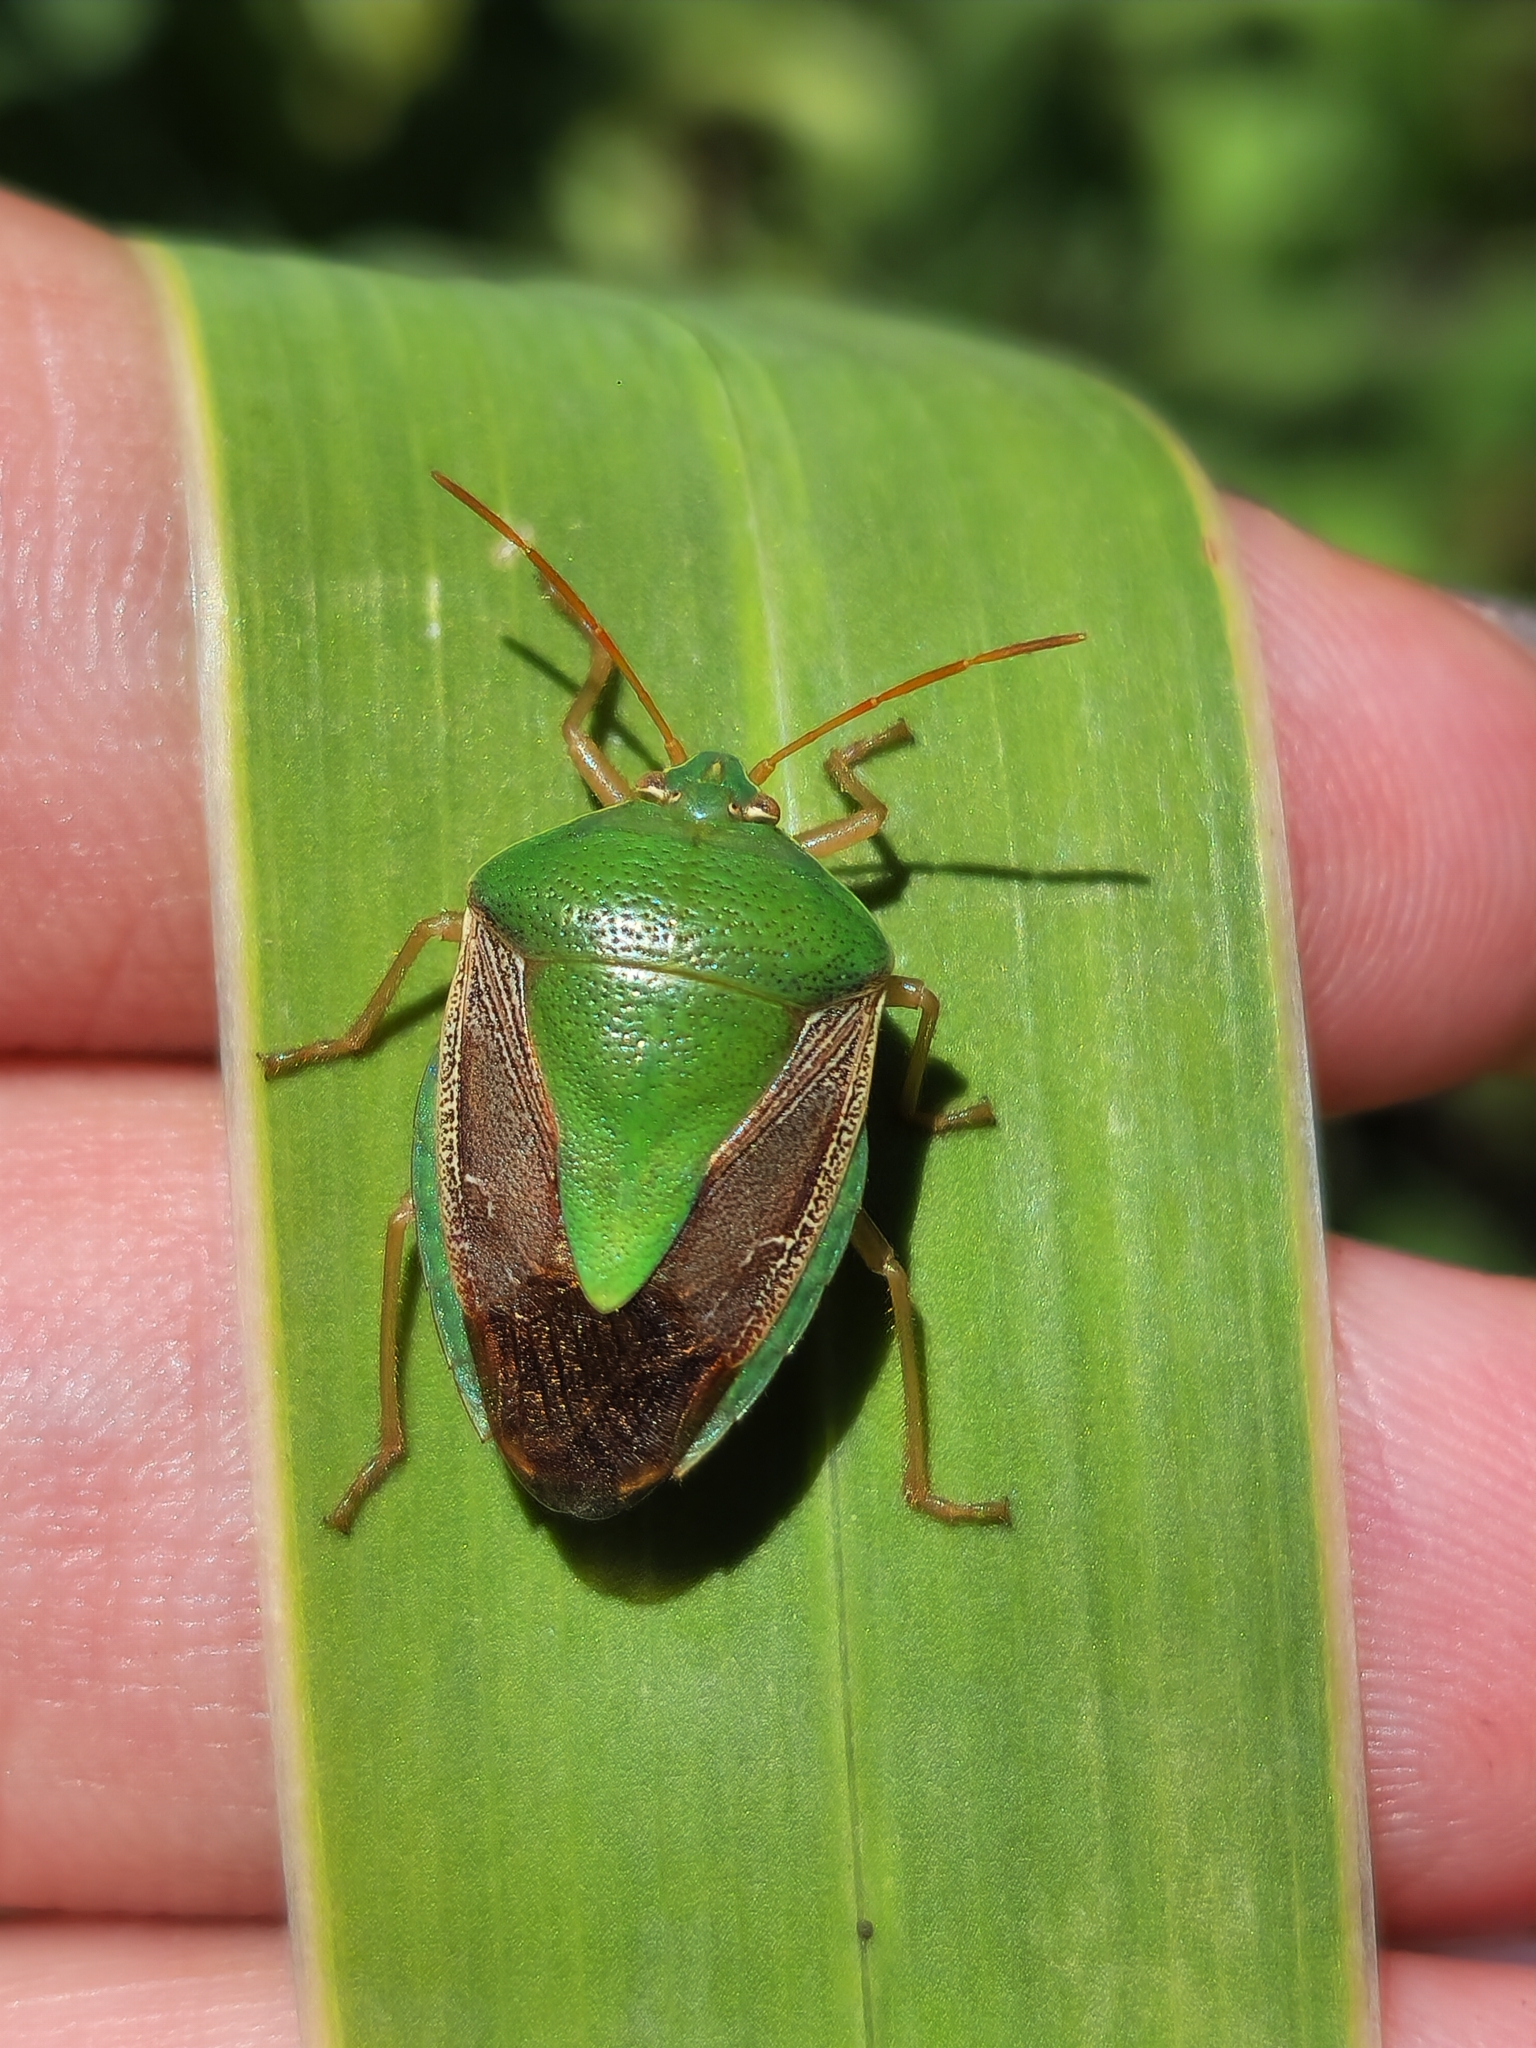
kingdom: Animalia
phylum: Arthropoda
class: Insecta
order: Hemiptera
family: Pentatomidae
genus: Edessa
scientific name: Edessa meditabunda
